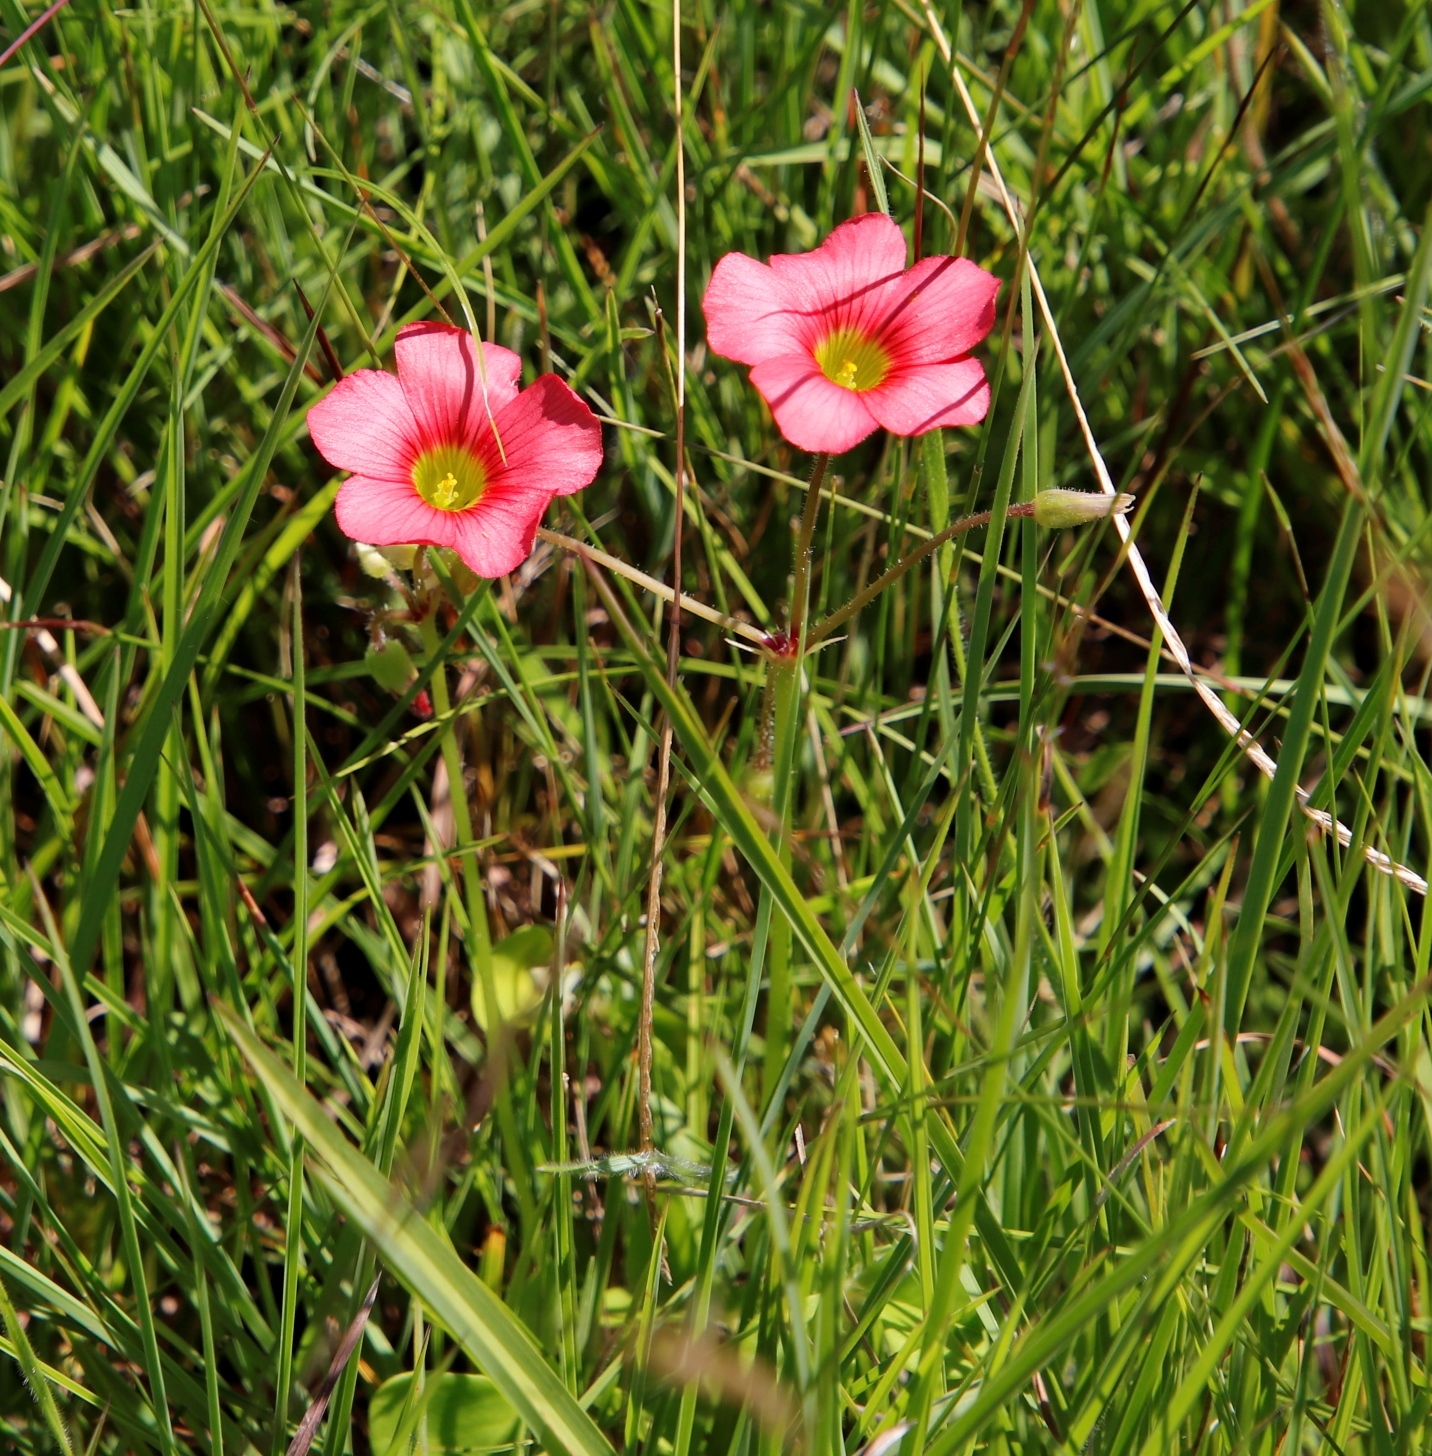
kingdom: Plantae
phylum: Tracheophyta
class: Magnoliopsida
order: Oxalidales
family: Oxalidaceae
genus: Oxalis
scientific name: Oxalis bowiei
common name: Bowie's wood-sorrel
